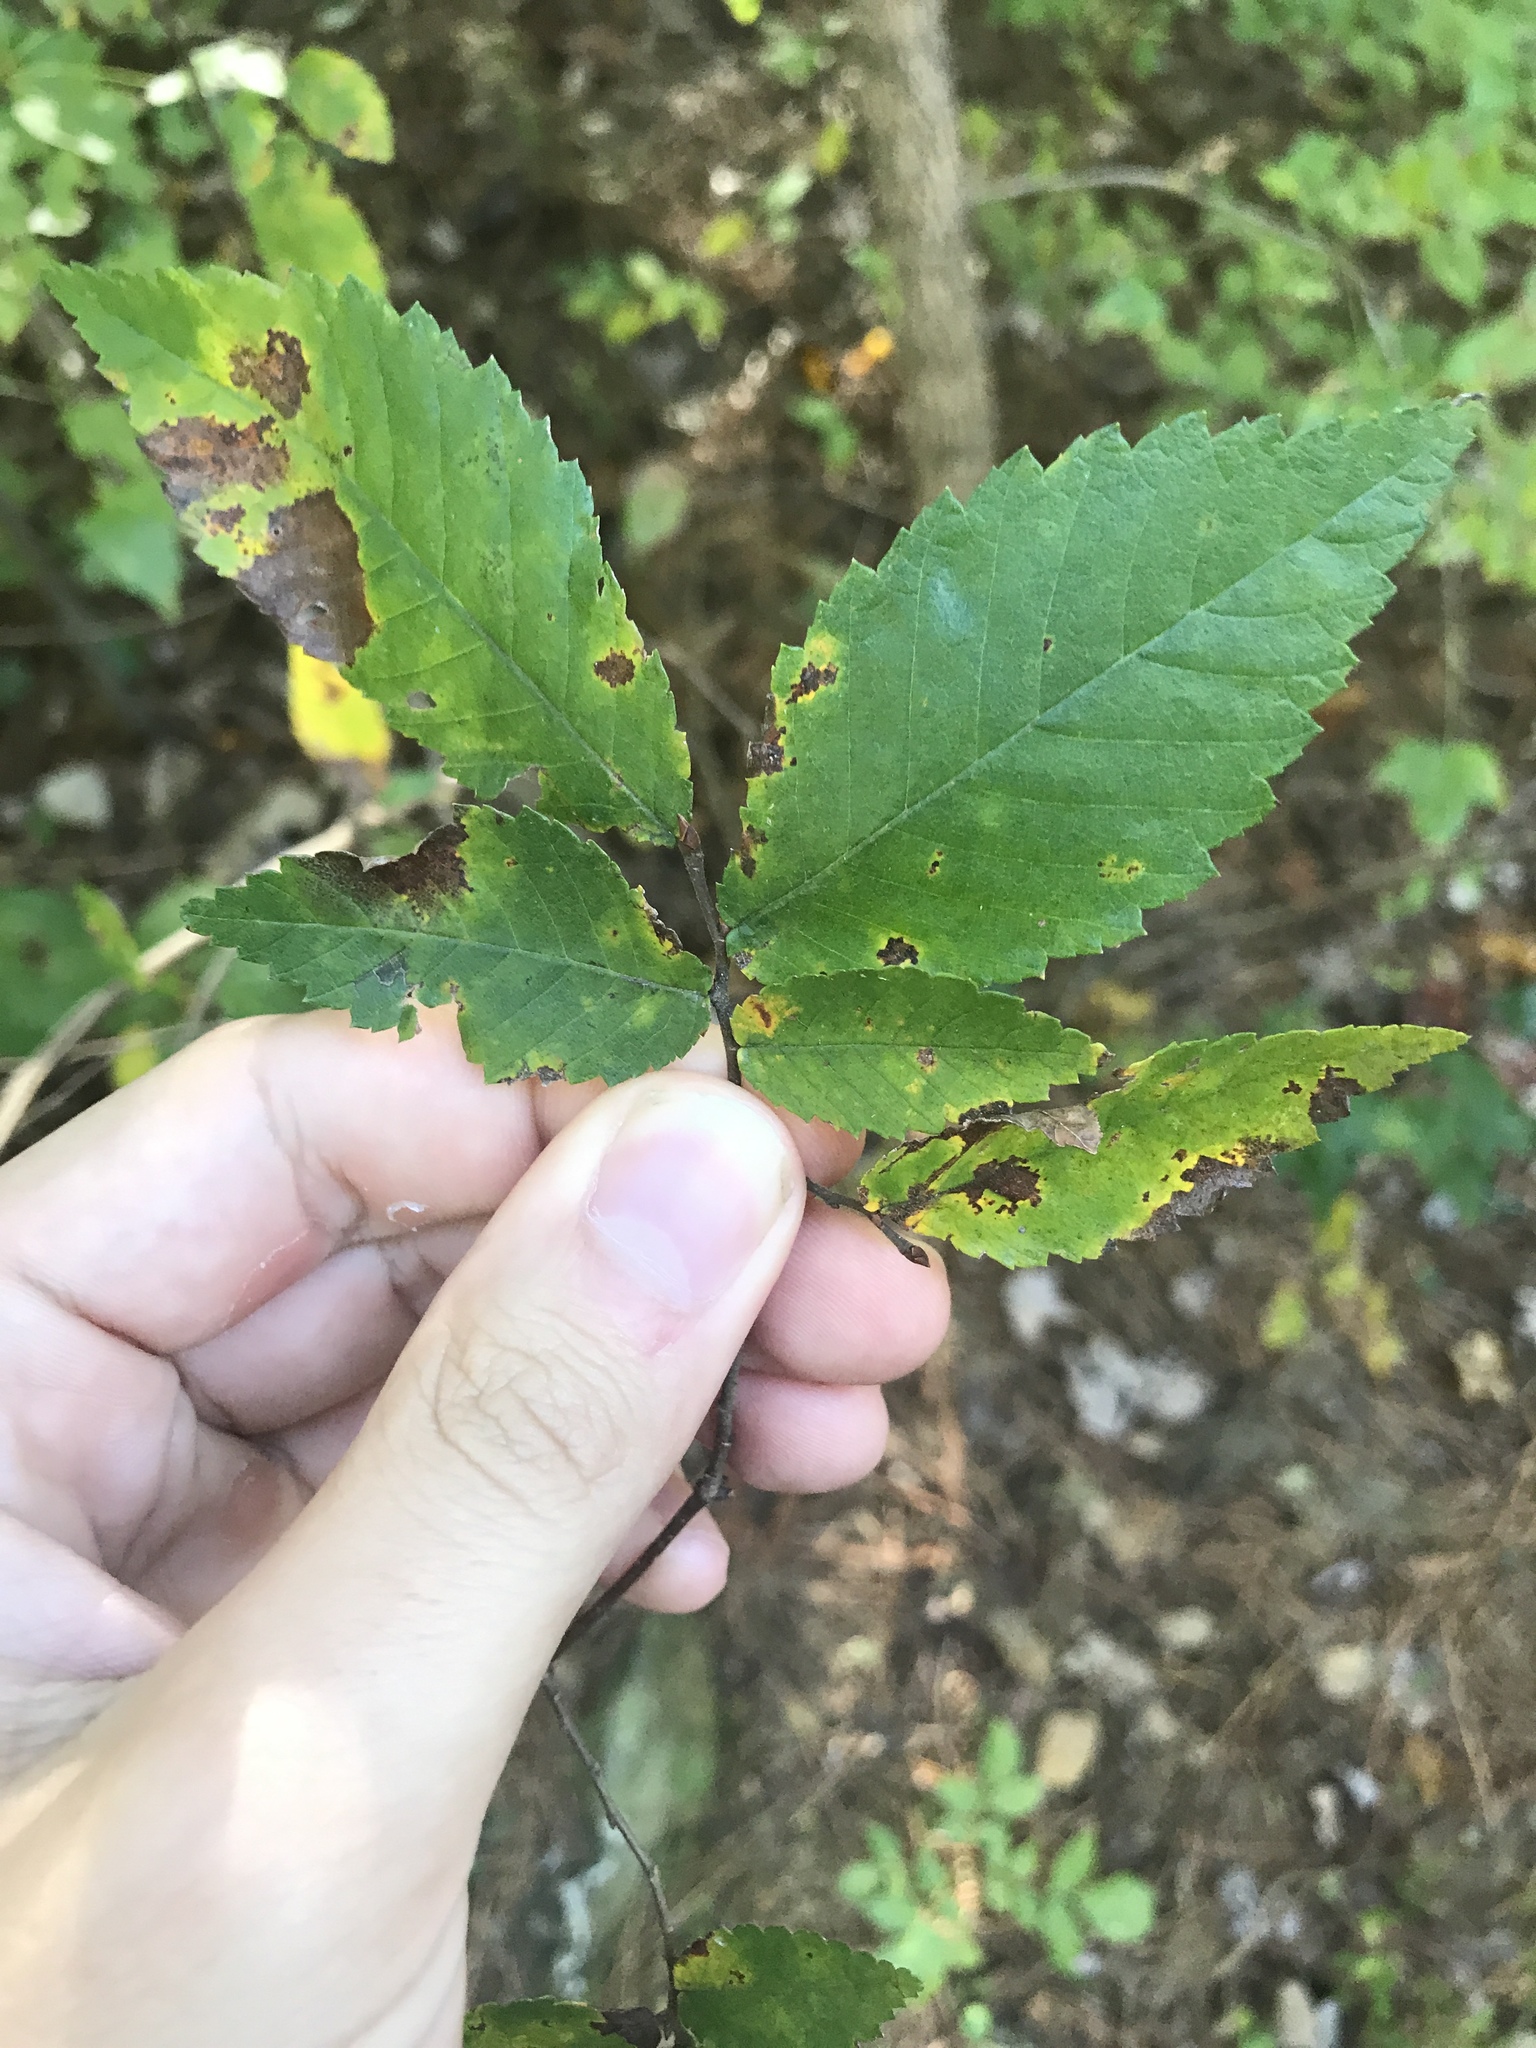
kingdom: Plantae
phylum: Tracheophyta
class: Magnoliopsida
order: Rosales
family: Ulmaceae
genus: Ulmus
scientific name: Ulmus alata
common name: Winged elm
